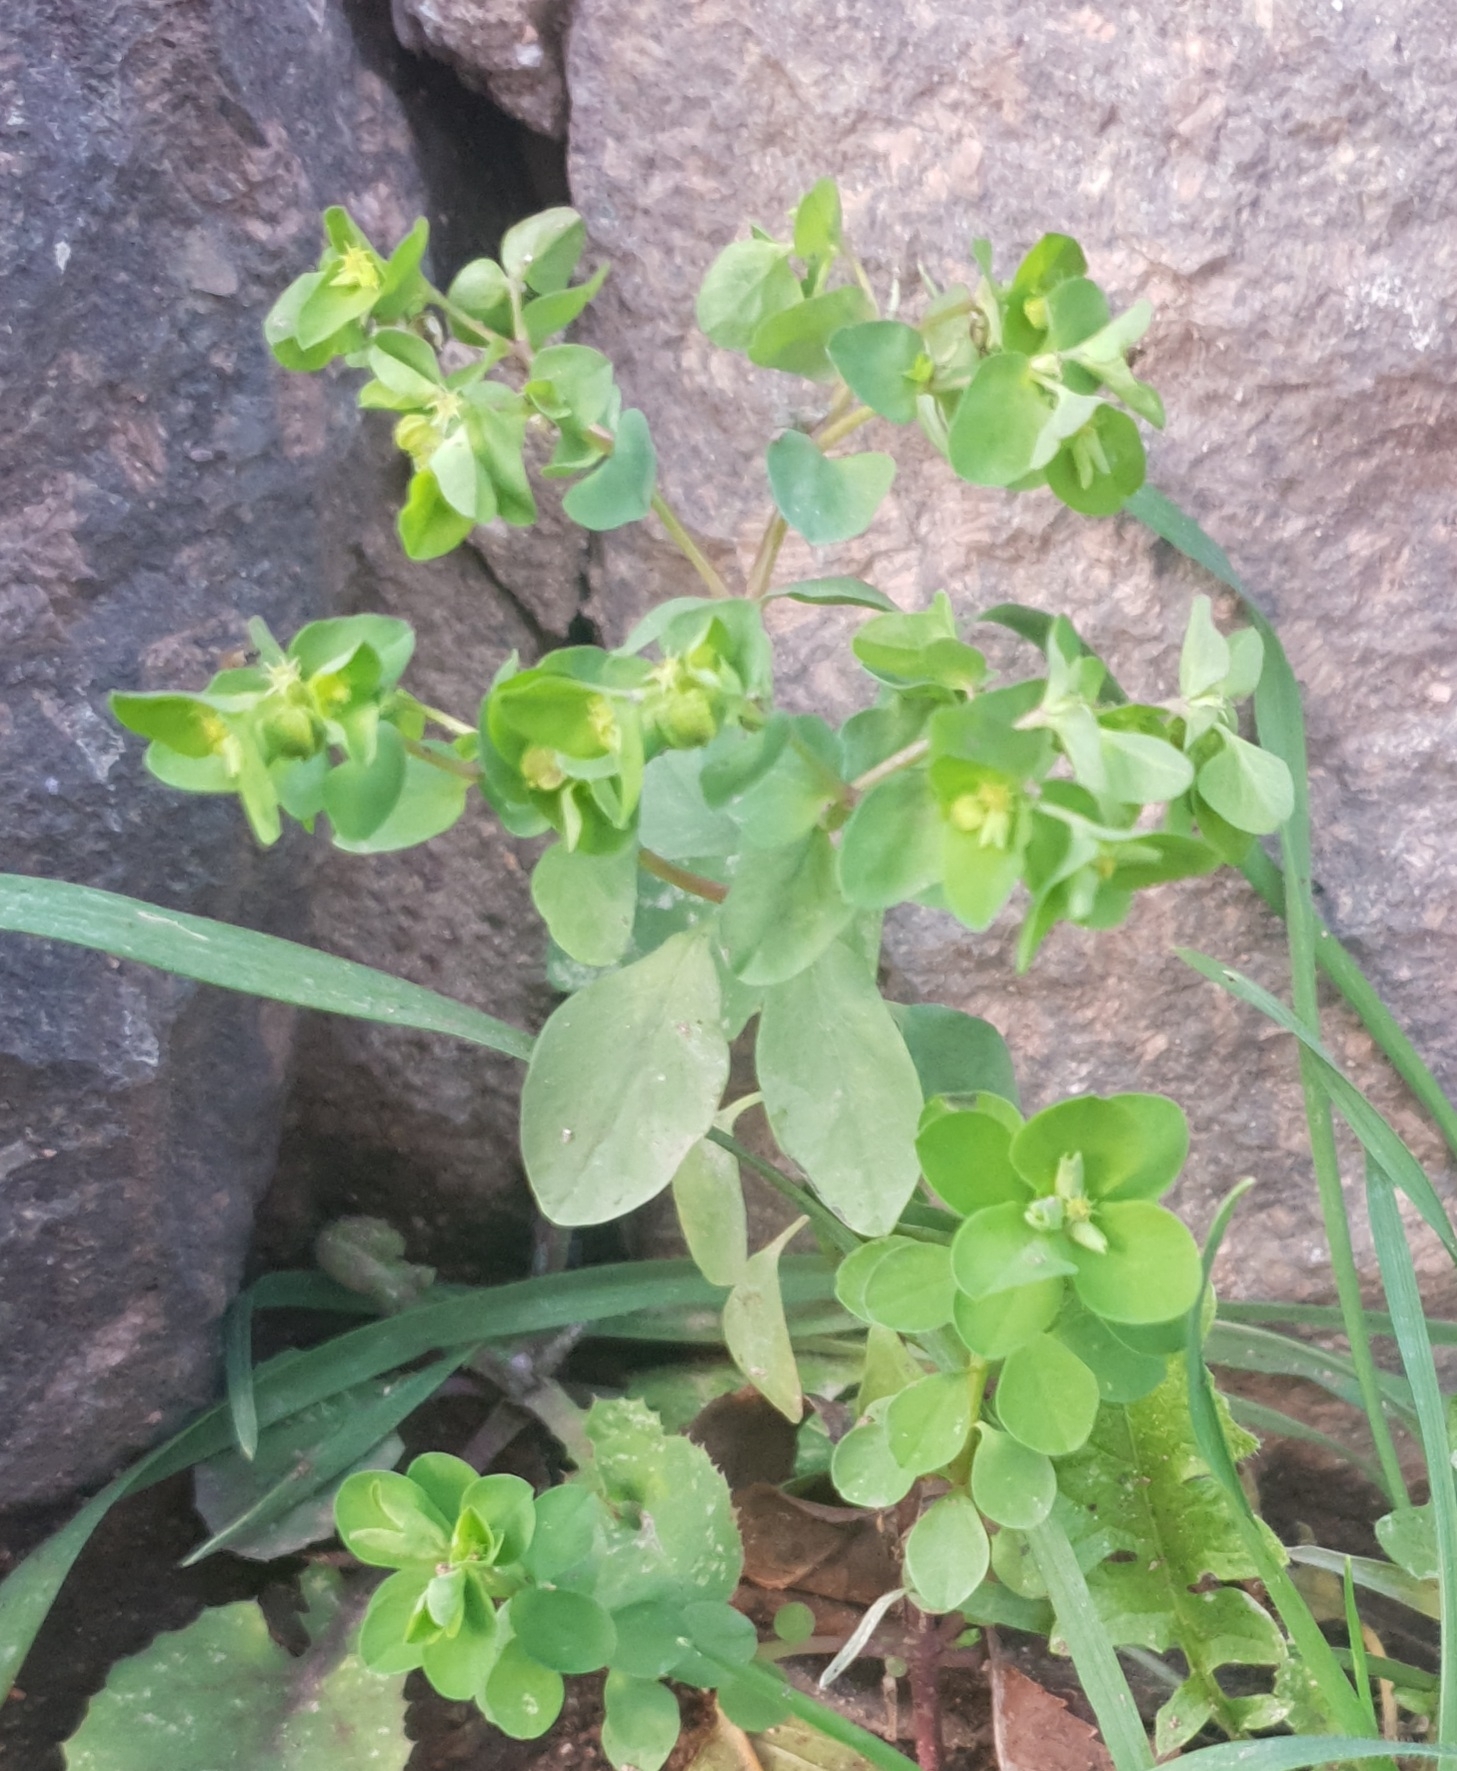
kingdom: Plantae
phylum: Tracheophyta
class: Magnoliopsida
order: Malpighiales
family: Euphorbiaceae
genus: Euphorbia
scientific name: Euphorbia peplus
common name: Petty spurge
